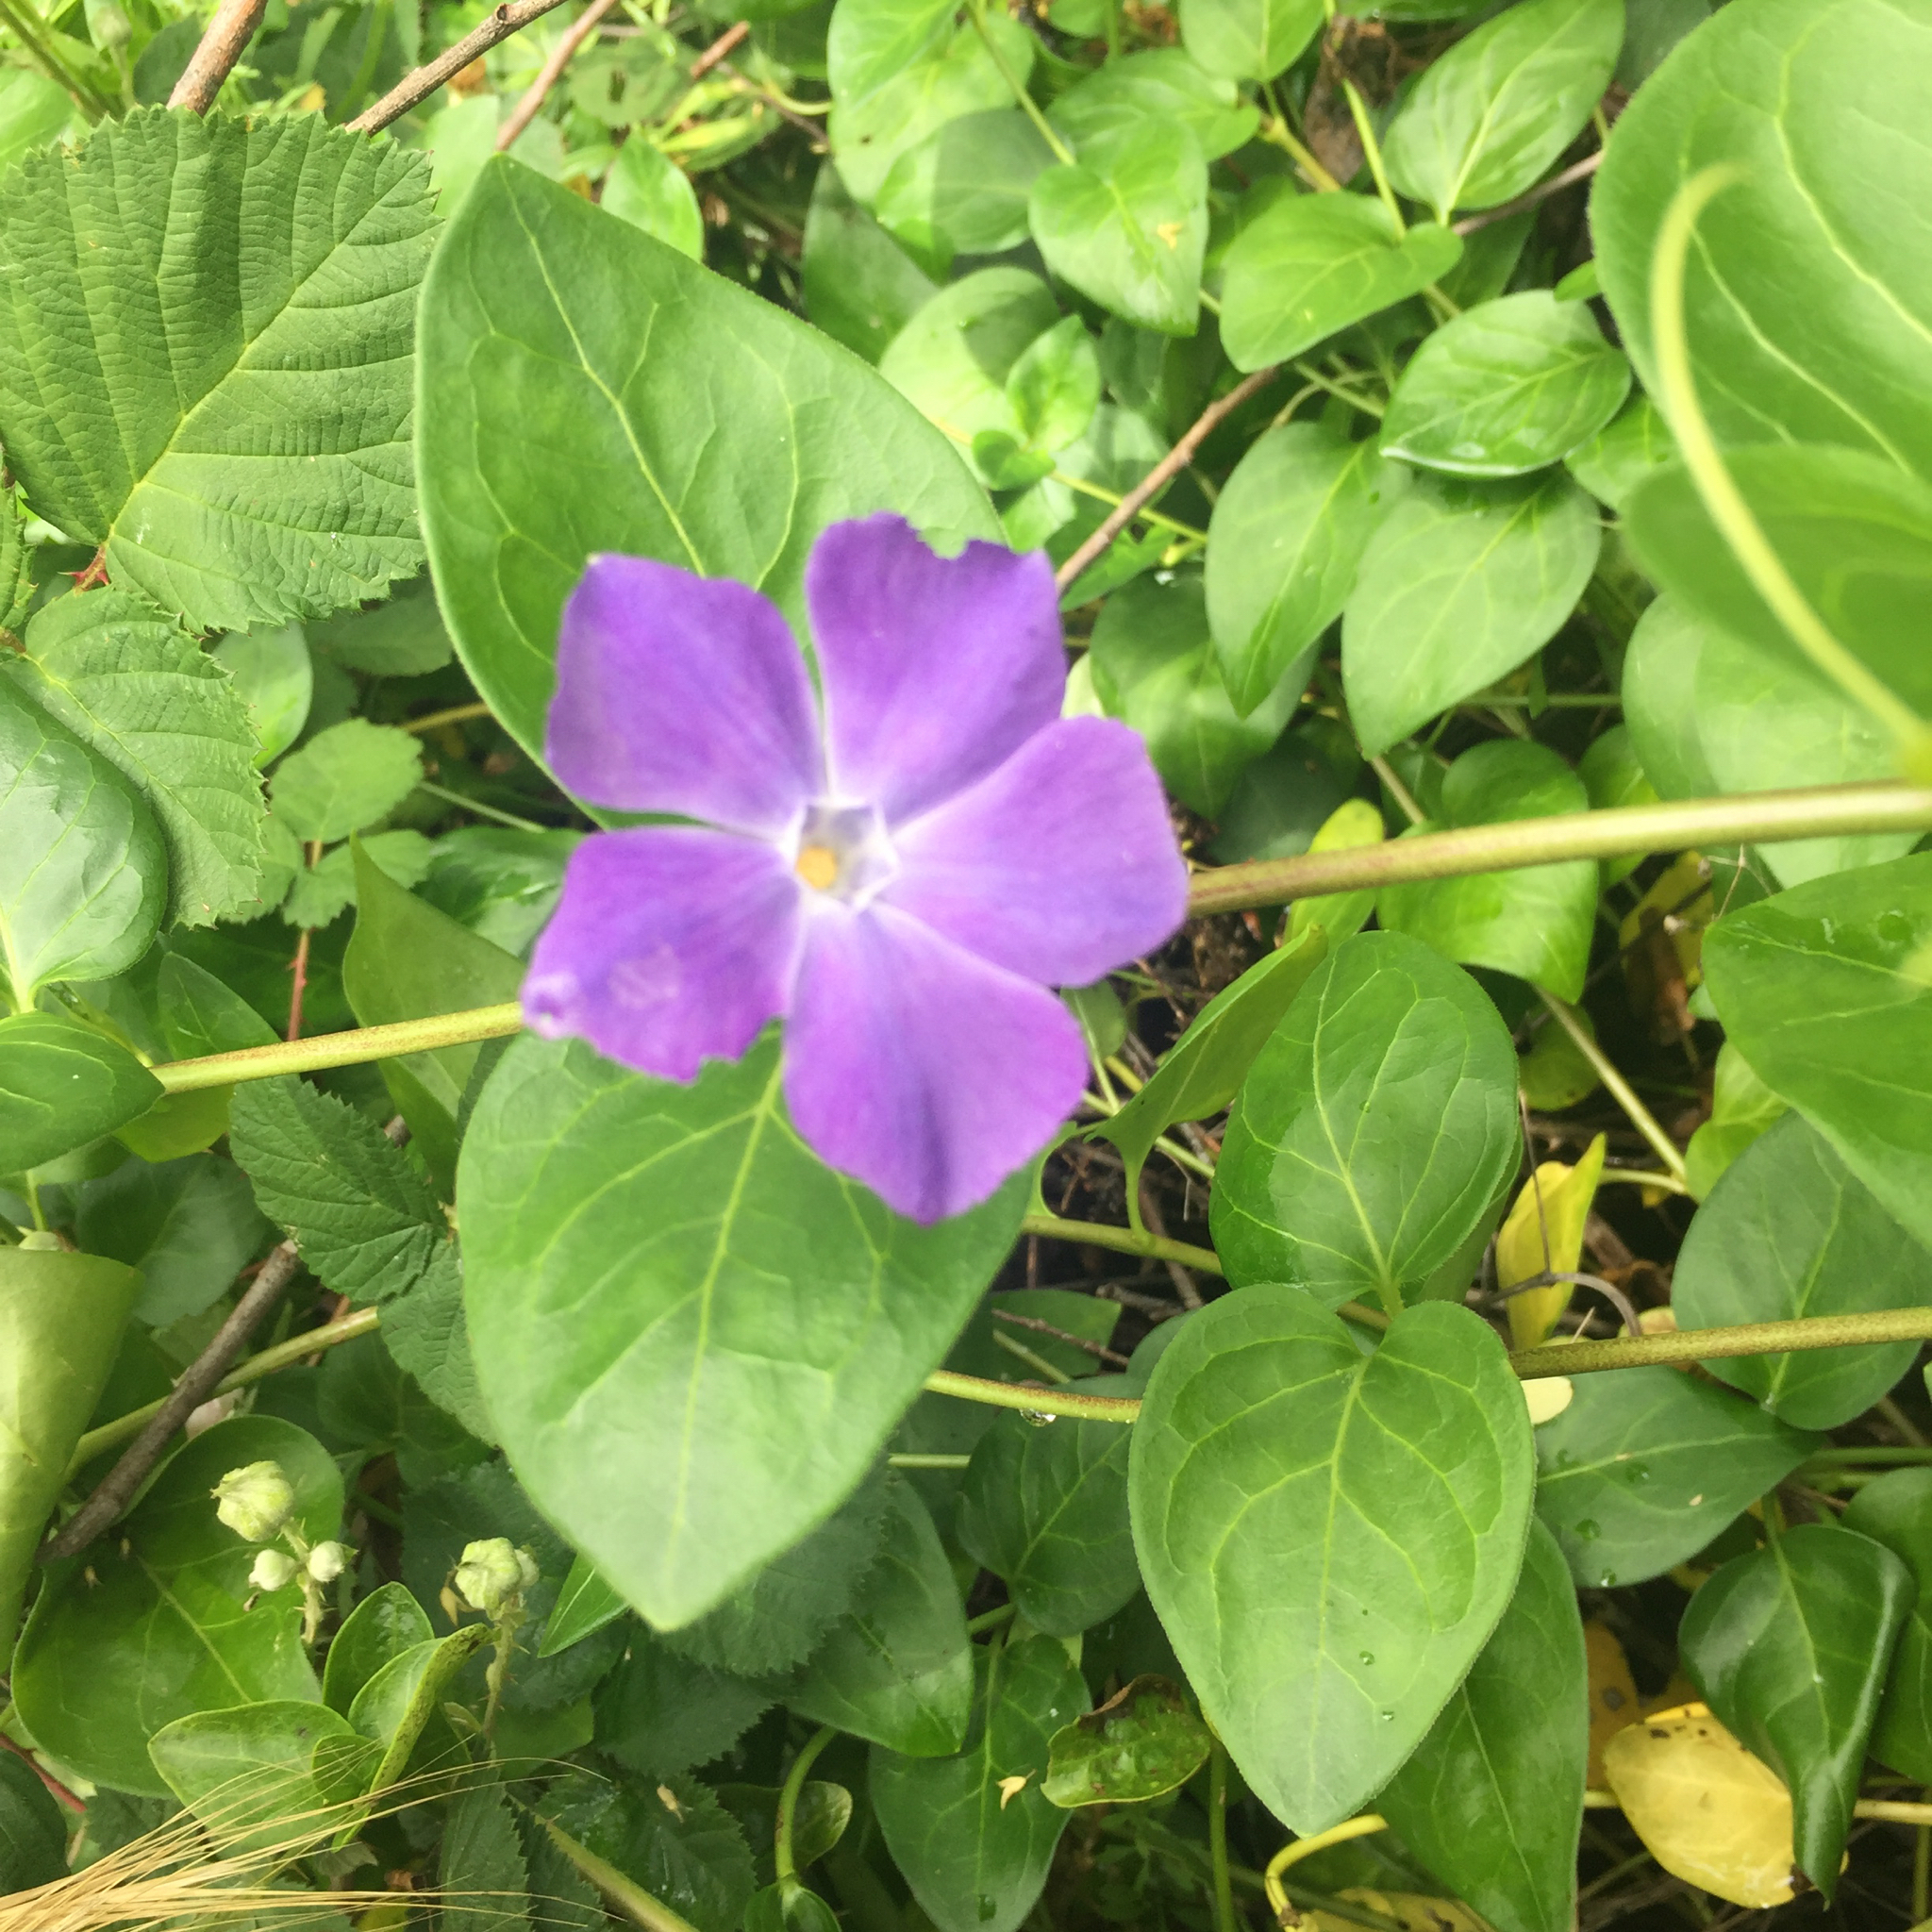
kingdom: Plantae
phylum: Tracheophyta
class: Magnoliopsida
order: Gentianales
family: Apocynaceae
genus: Vinca
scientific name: Vinca major
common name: Greater periwinkle
